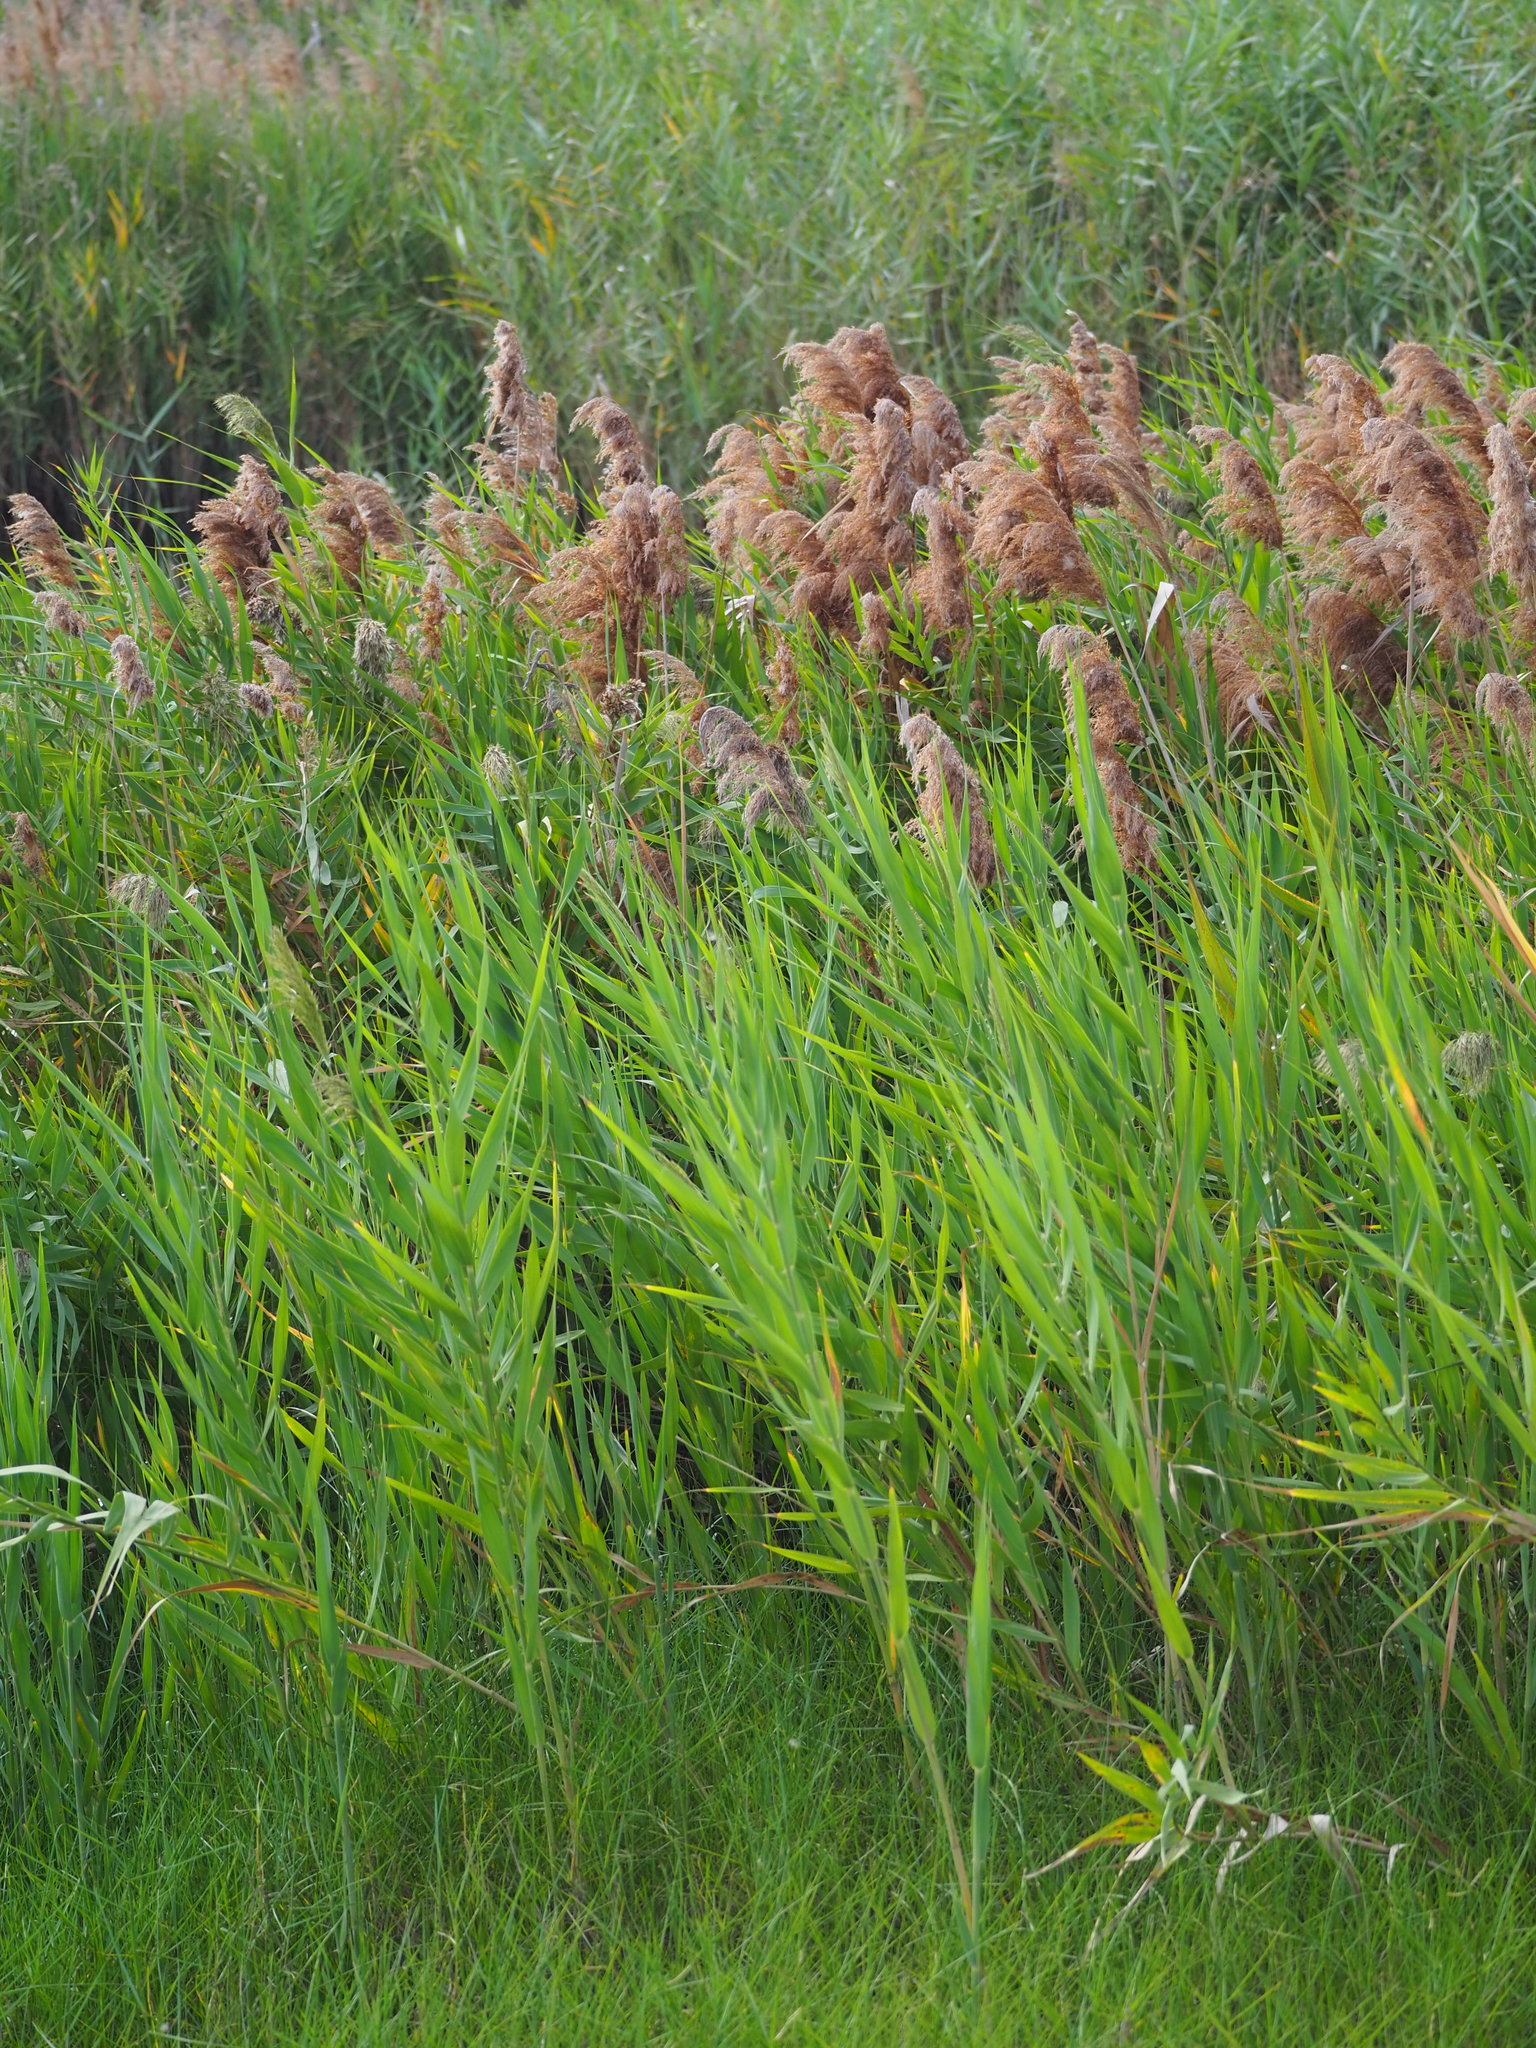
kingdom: Plantae
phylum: Tracheophyta
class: Liliopsida
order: Poales
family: Poaceae
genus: Phragmites
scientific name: Phragmites australis
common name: Common reed
